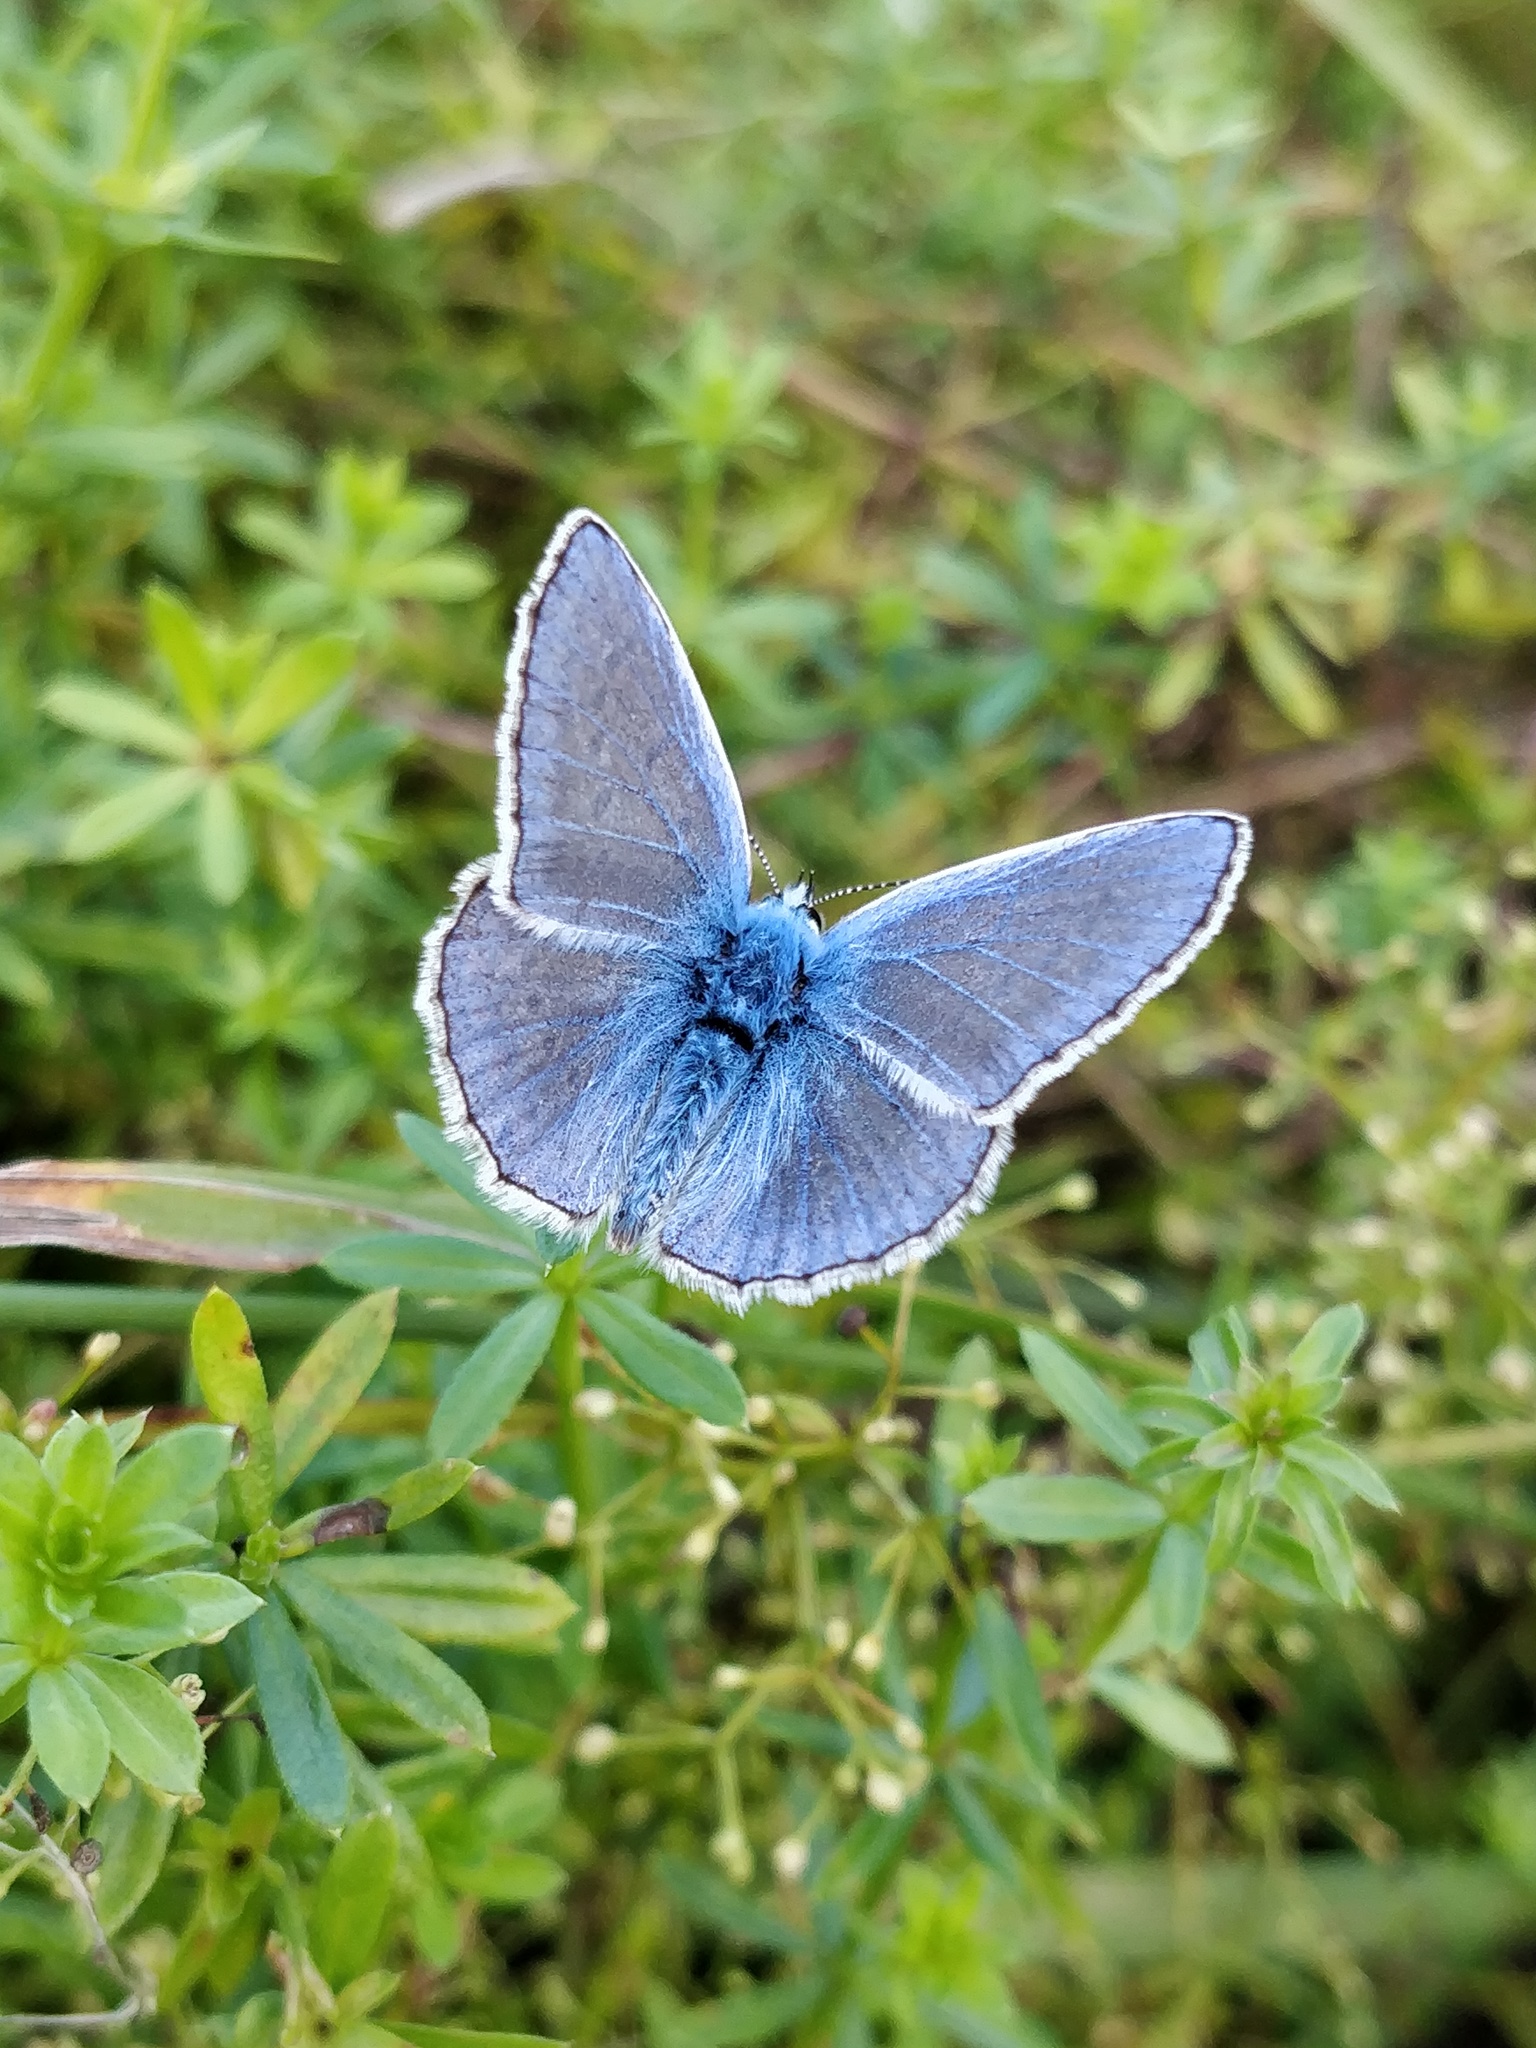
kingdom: Animalia
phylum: Arthropoda
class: Insecta
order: Lepidoptera
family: Lycaenidae
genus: Polyommatus
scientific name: Polyommatus icarus
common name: Common blue
